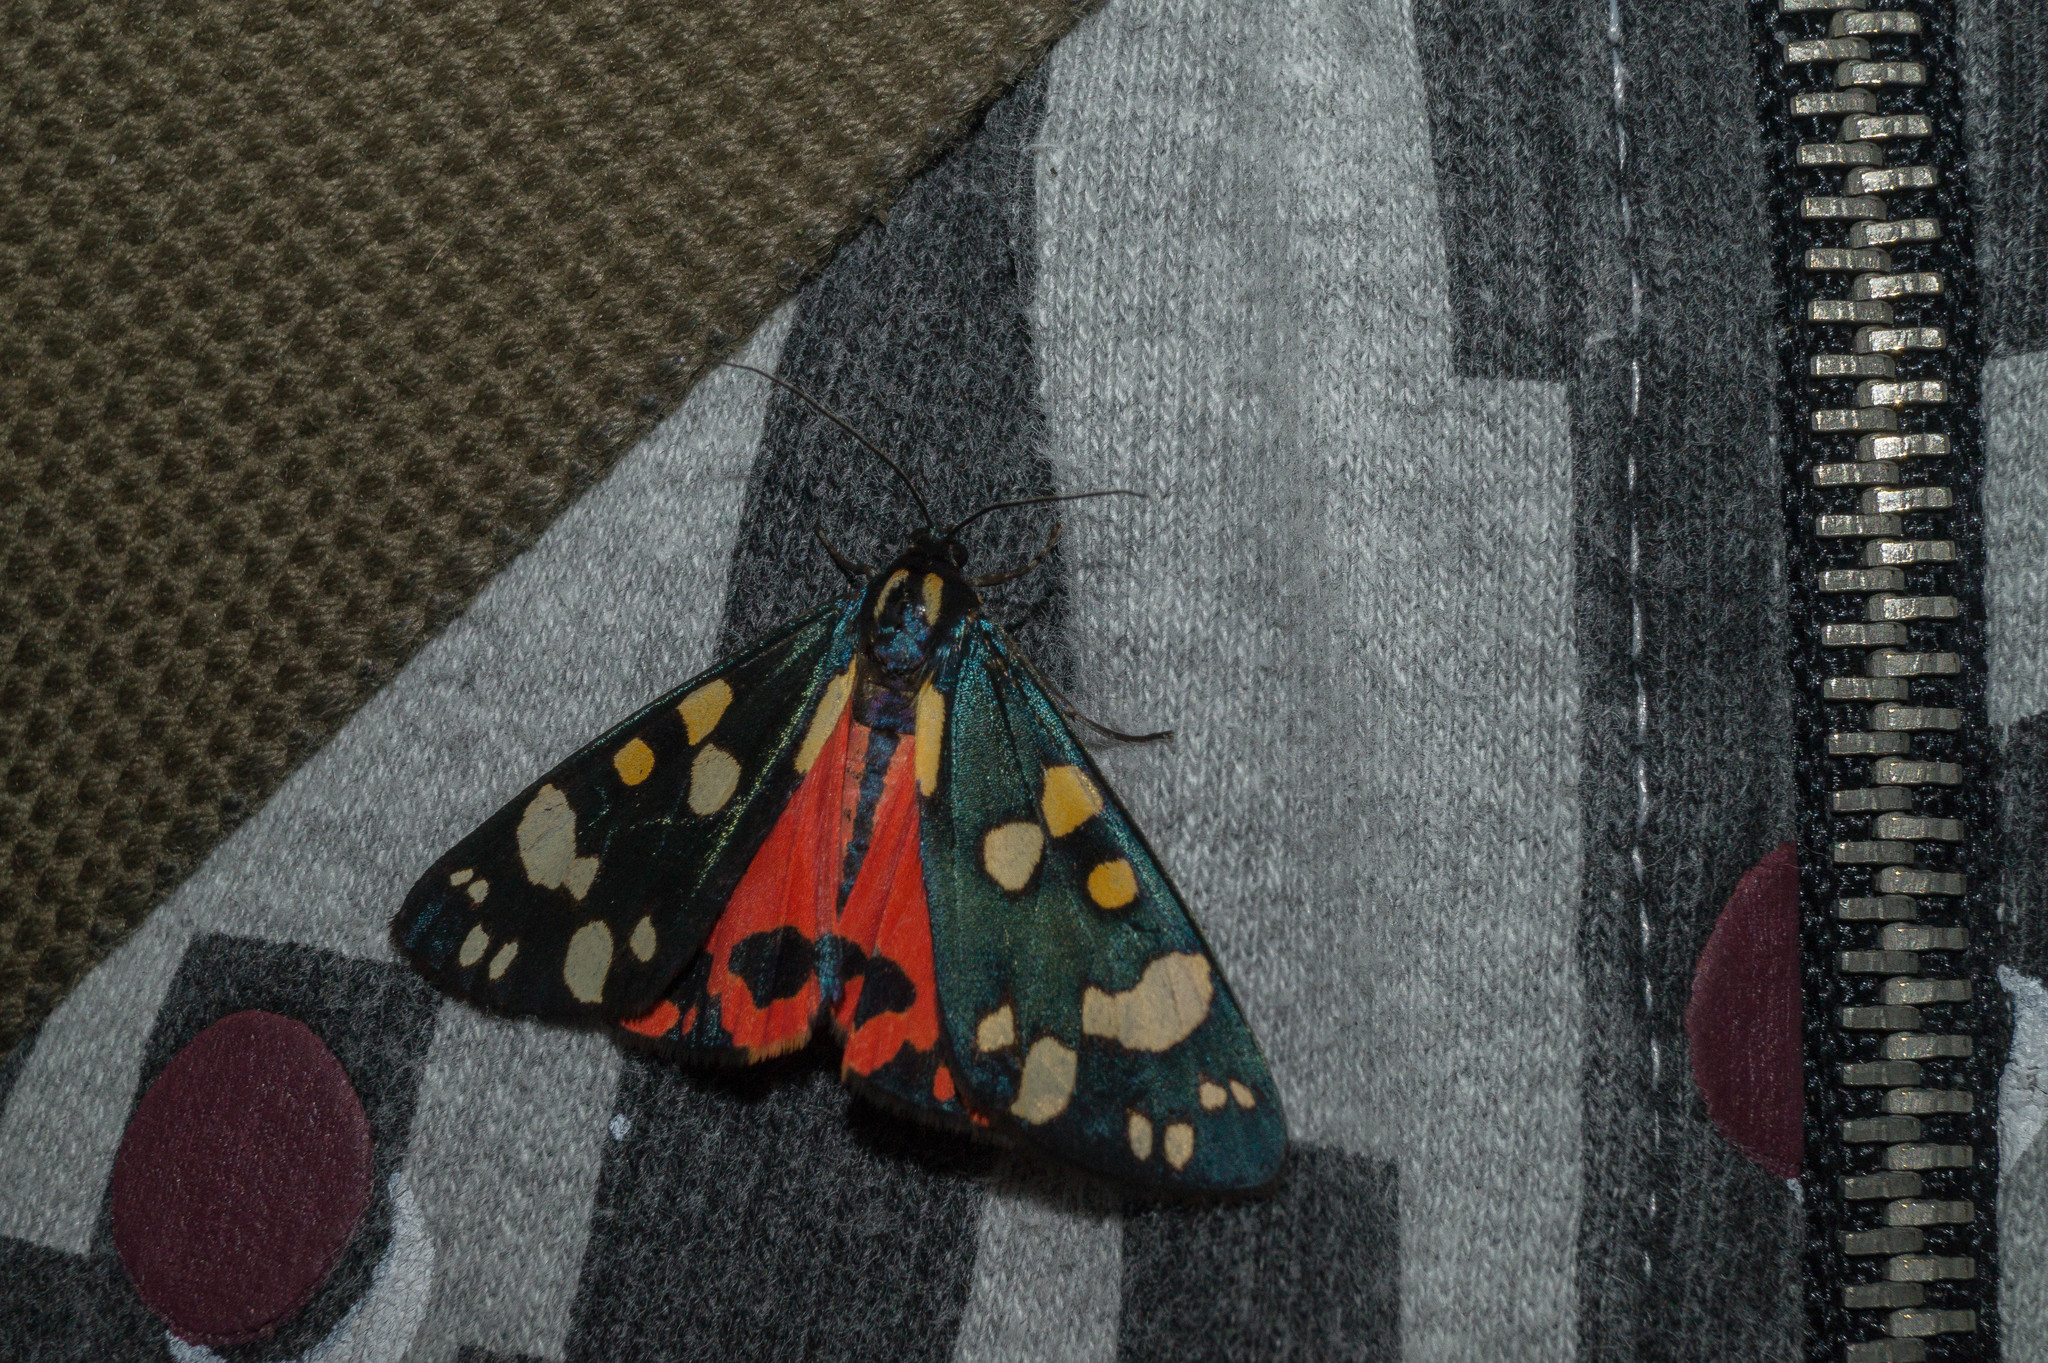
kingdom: Animalia
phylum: Arthropoda
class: Insecta
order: Lepidoptera
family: Erebidae
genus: Callimorpha
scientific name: Callimorpha dominula
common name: Scarlet tiger
